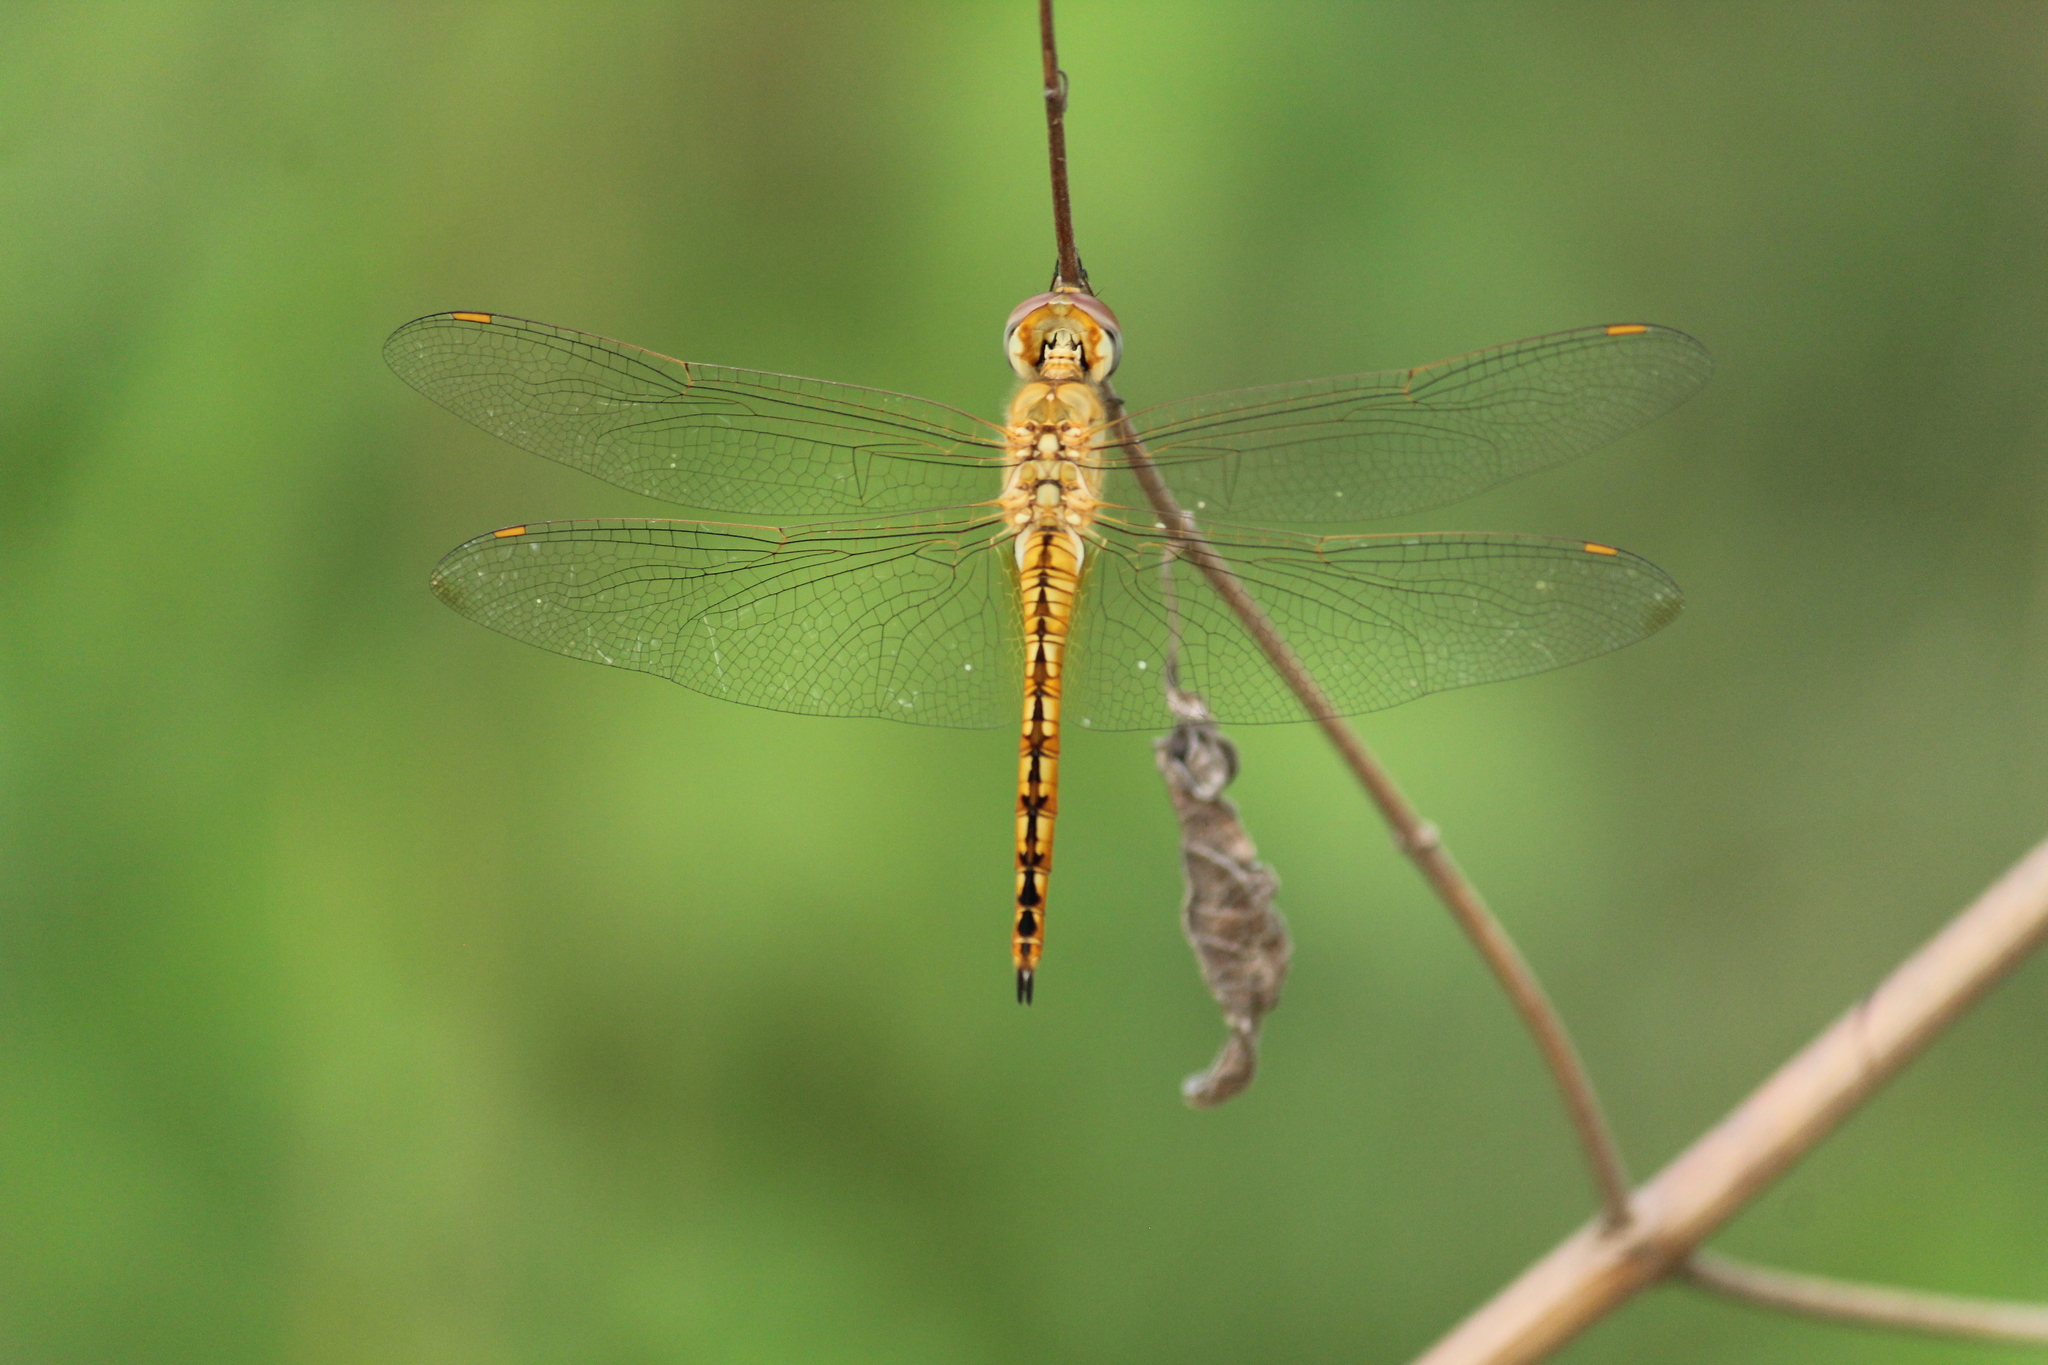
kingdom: Animalia
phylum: Arthropoda
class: Insecta
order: Odonata
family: Libellulidae
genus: Pantala
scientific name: Pantala flavescens
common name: Wandering glider
